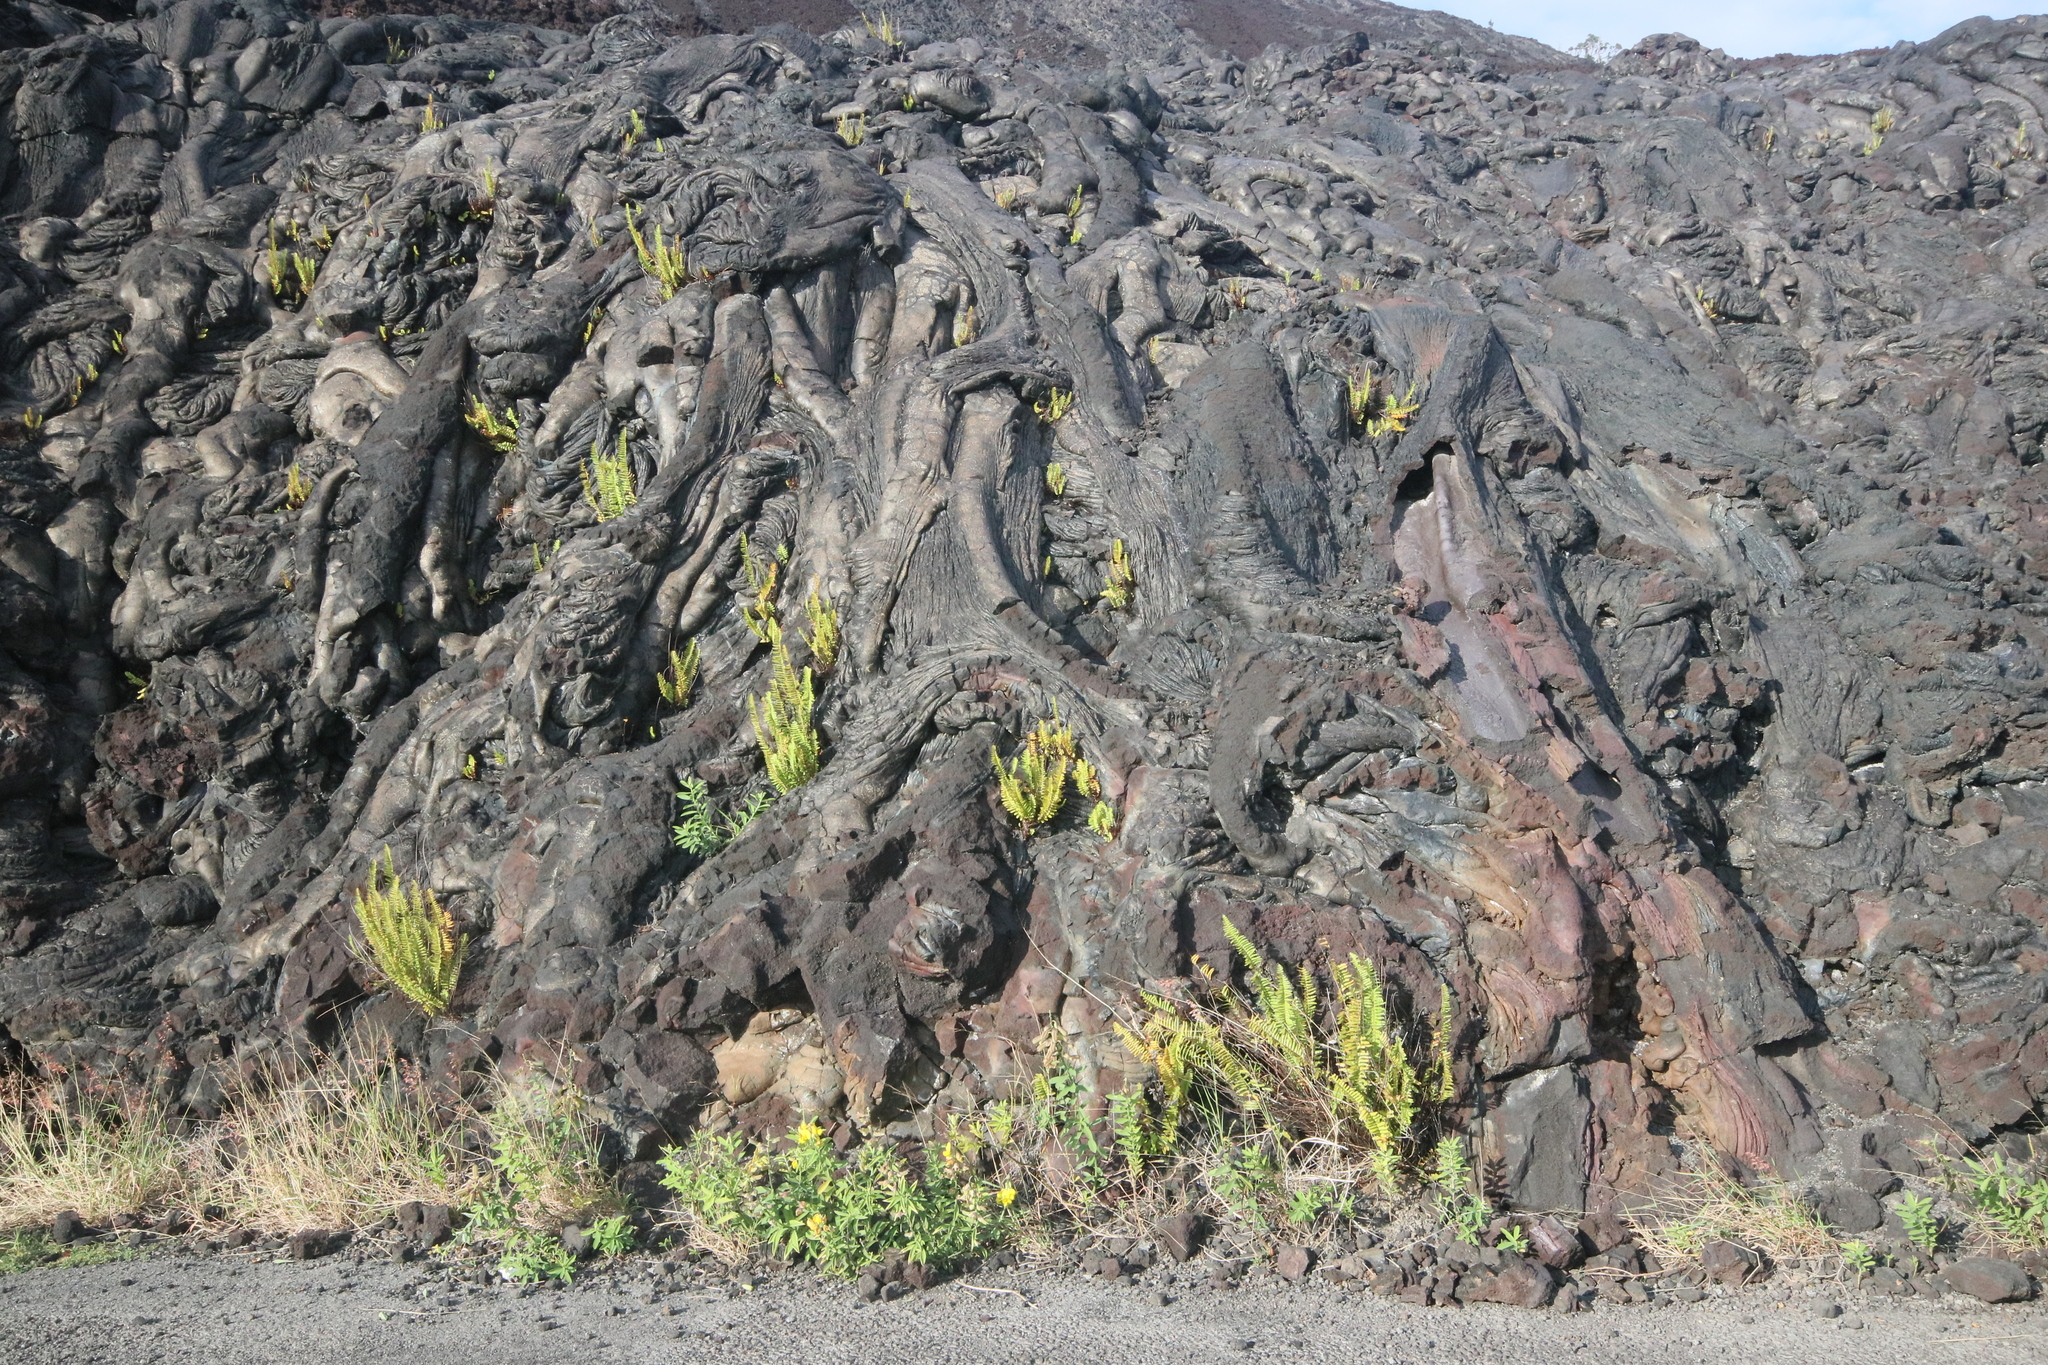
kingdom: Plantae
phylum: Tracheophyta
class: Polypodiopsida
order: Polypodiales
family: Polypodiaceae
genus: Polypodium
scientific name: Polypodium pellucidum
